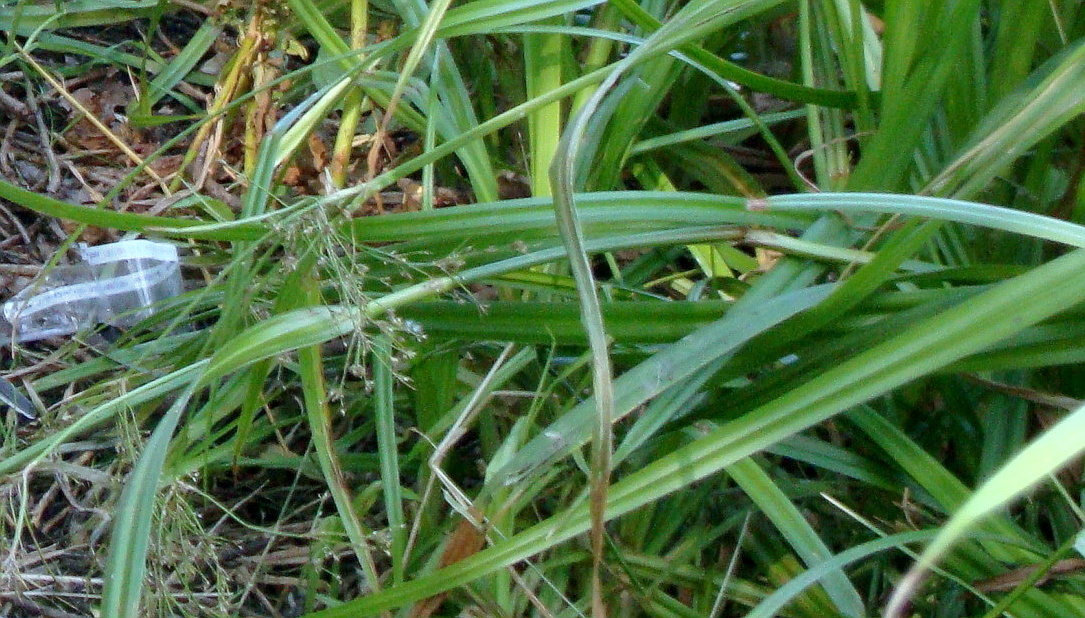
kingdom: Plantae
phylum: Tracheophyta
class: Liliopsida
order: Poales
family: Cyperaceae
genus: Scirpus
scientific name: Scirpus sylvaticus
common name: Wood club-rush
